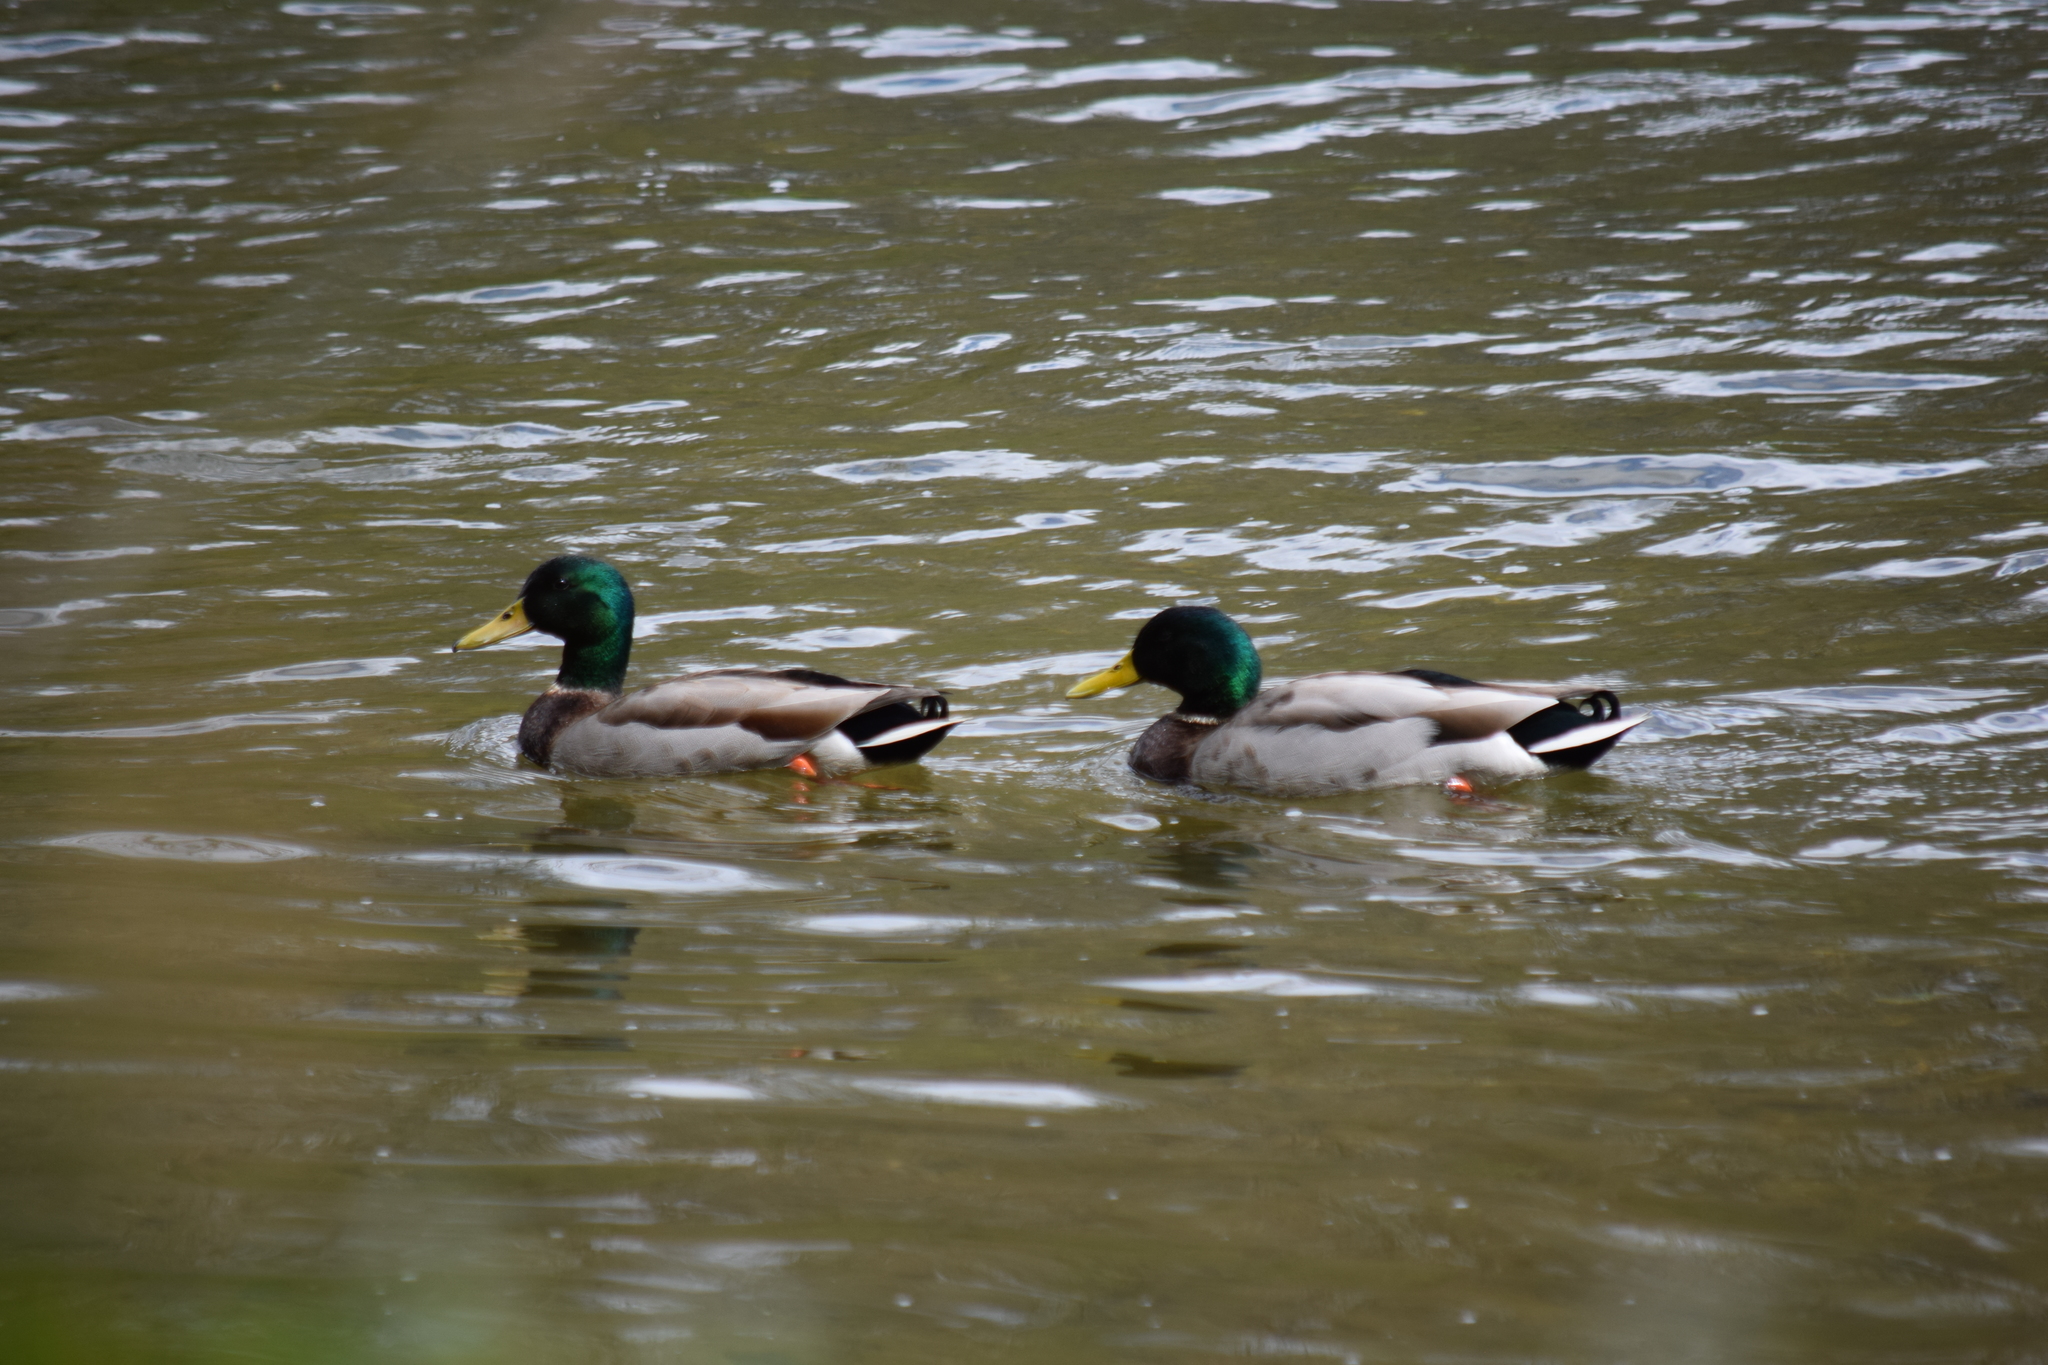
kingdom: Animalia
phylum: Chordata
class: Aves
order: Anseriformes
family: Anatidae
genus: Anas
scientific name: Anas platyrhynchos
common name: Mallard
